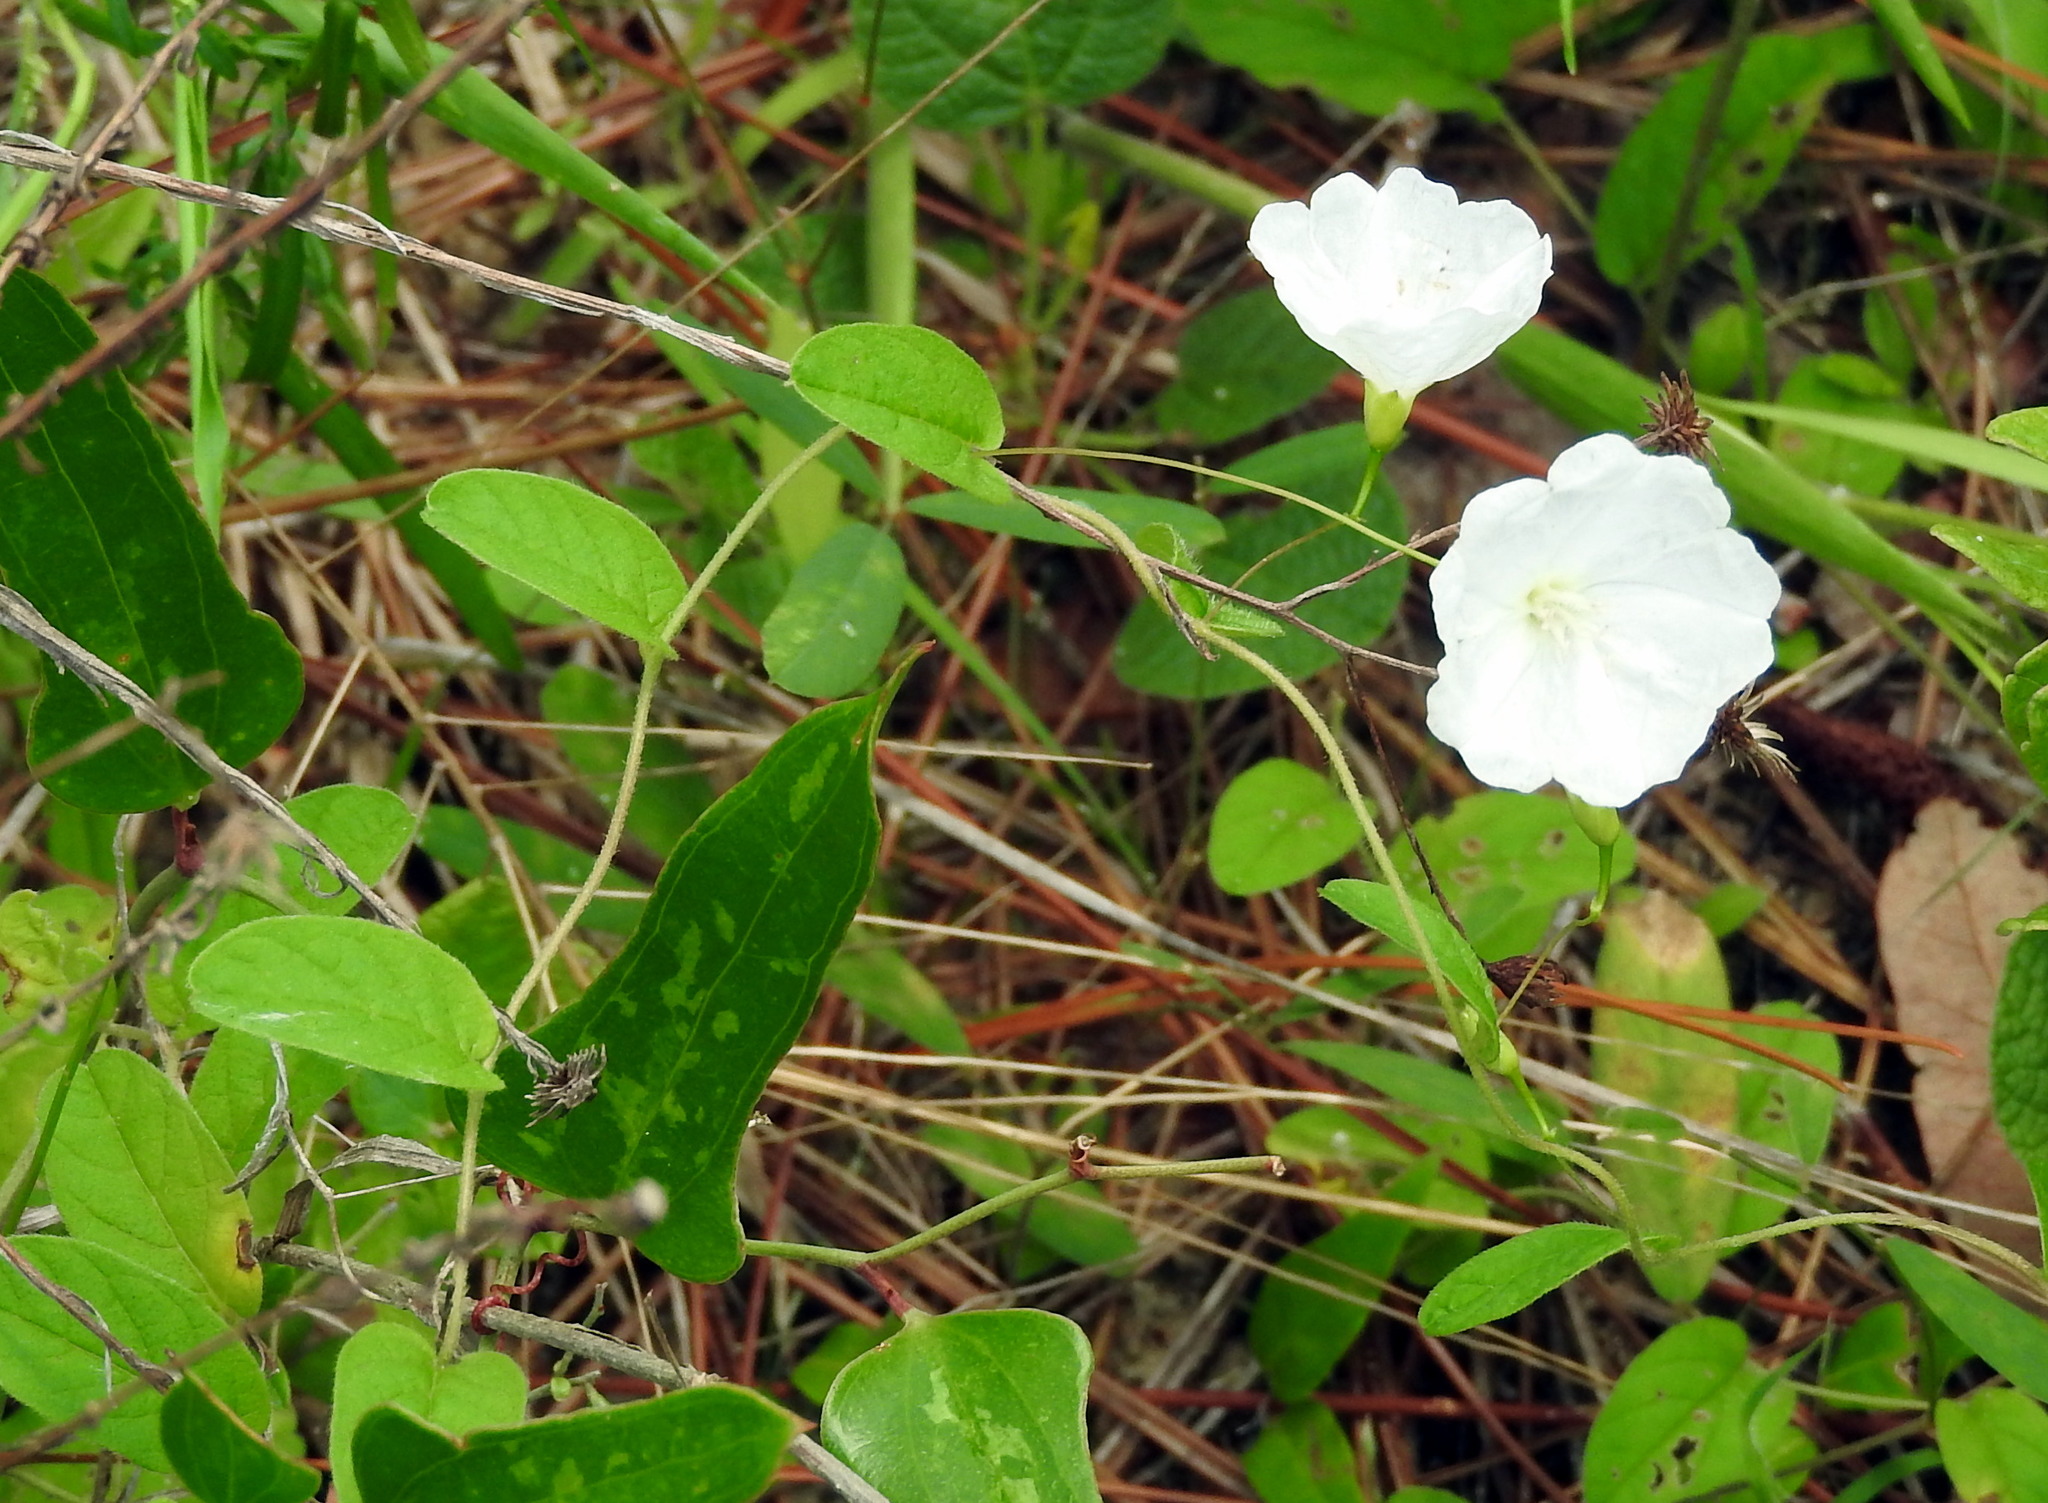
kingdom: Plantae
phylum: Tracheophyta
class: Magnoliopsida
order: Solanales
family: Convolvulaceae
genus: Stylisma
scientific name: Stylisma humistrata
